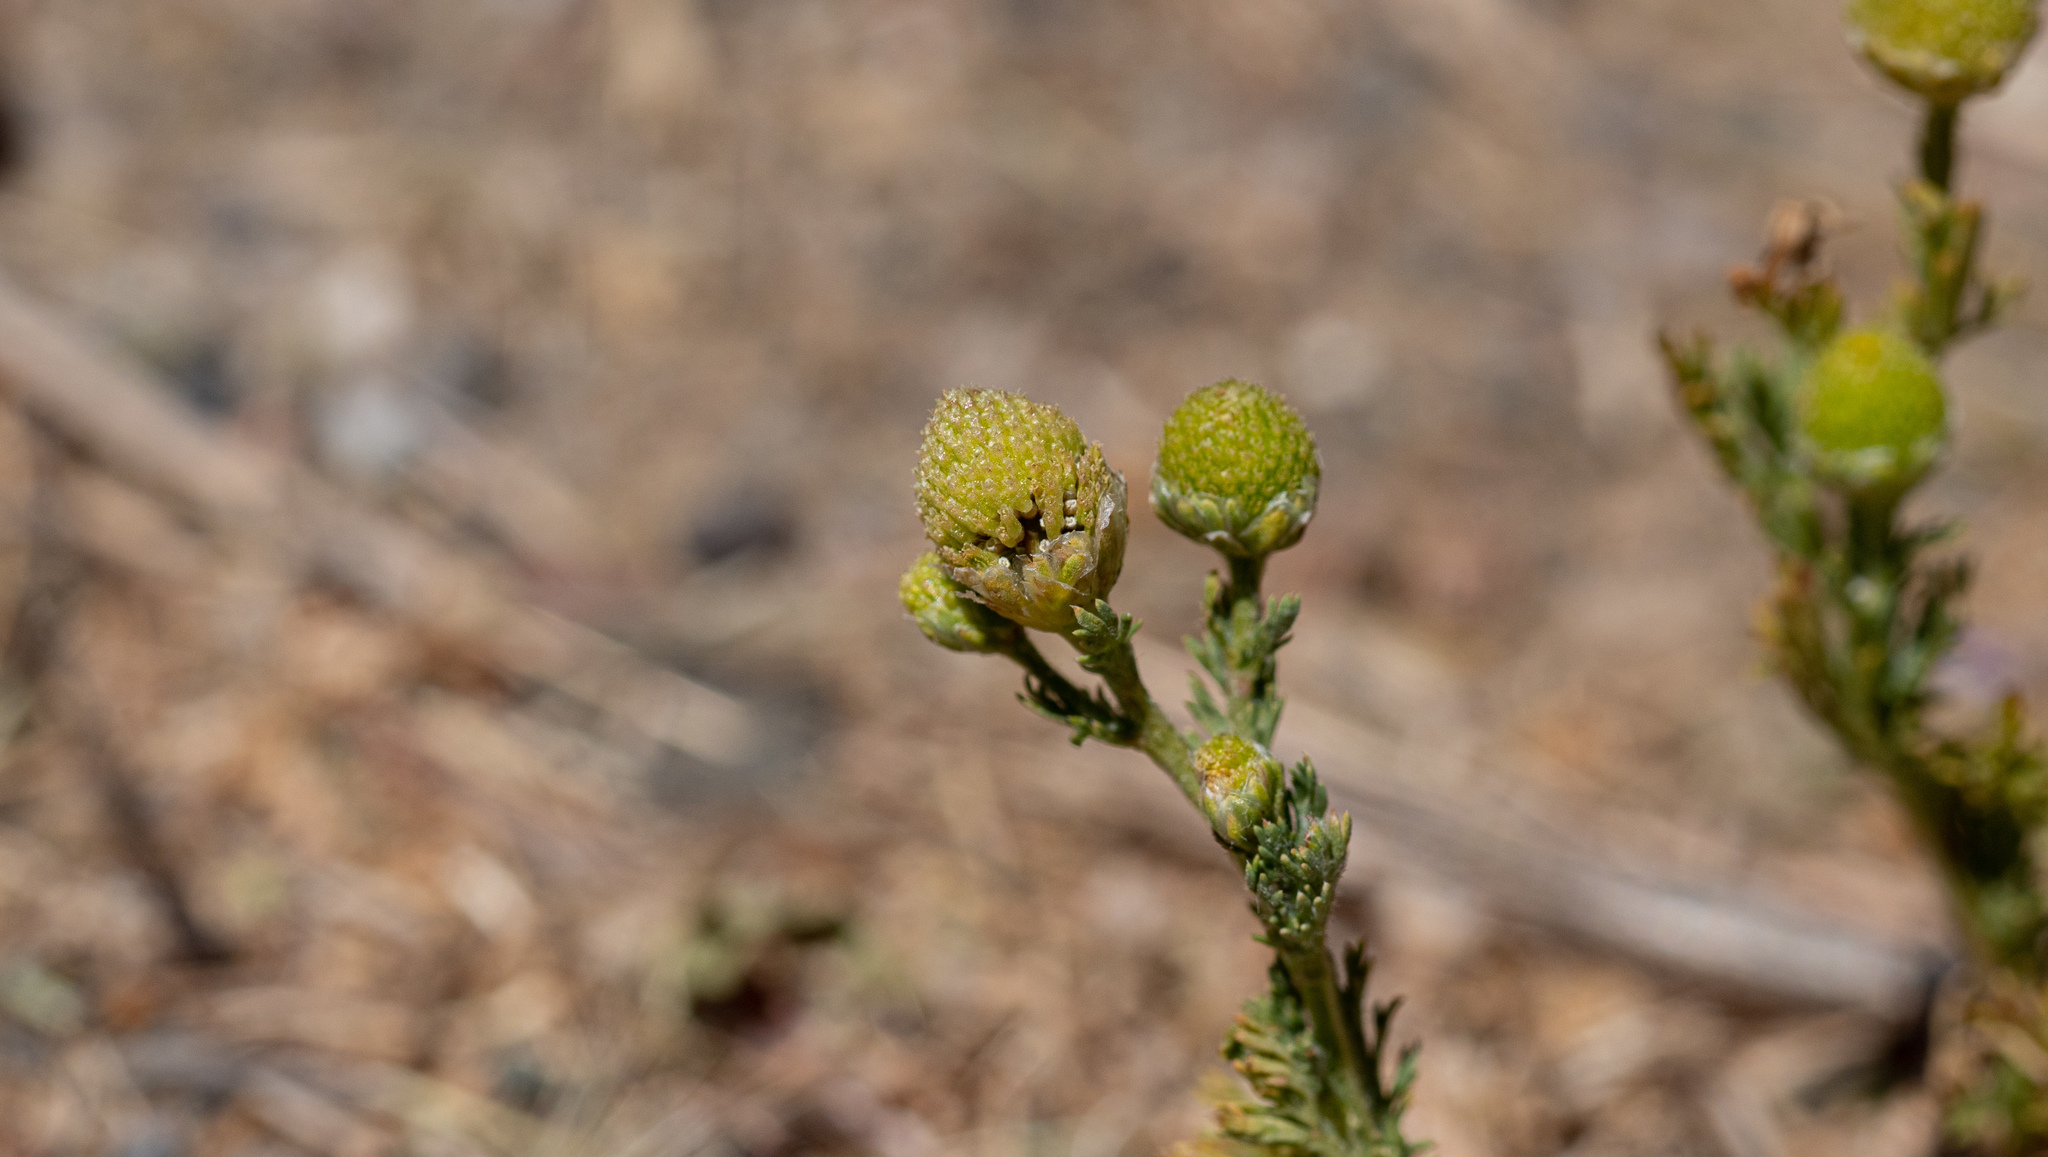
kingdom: Plantae
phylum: Tracheophyta
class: Magnoliopsida
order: Asterales
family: Asteraceae
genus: Matricaria
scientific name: Matricaria discoidea
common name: Disc mayweed
